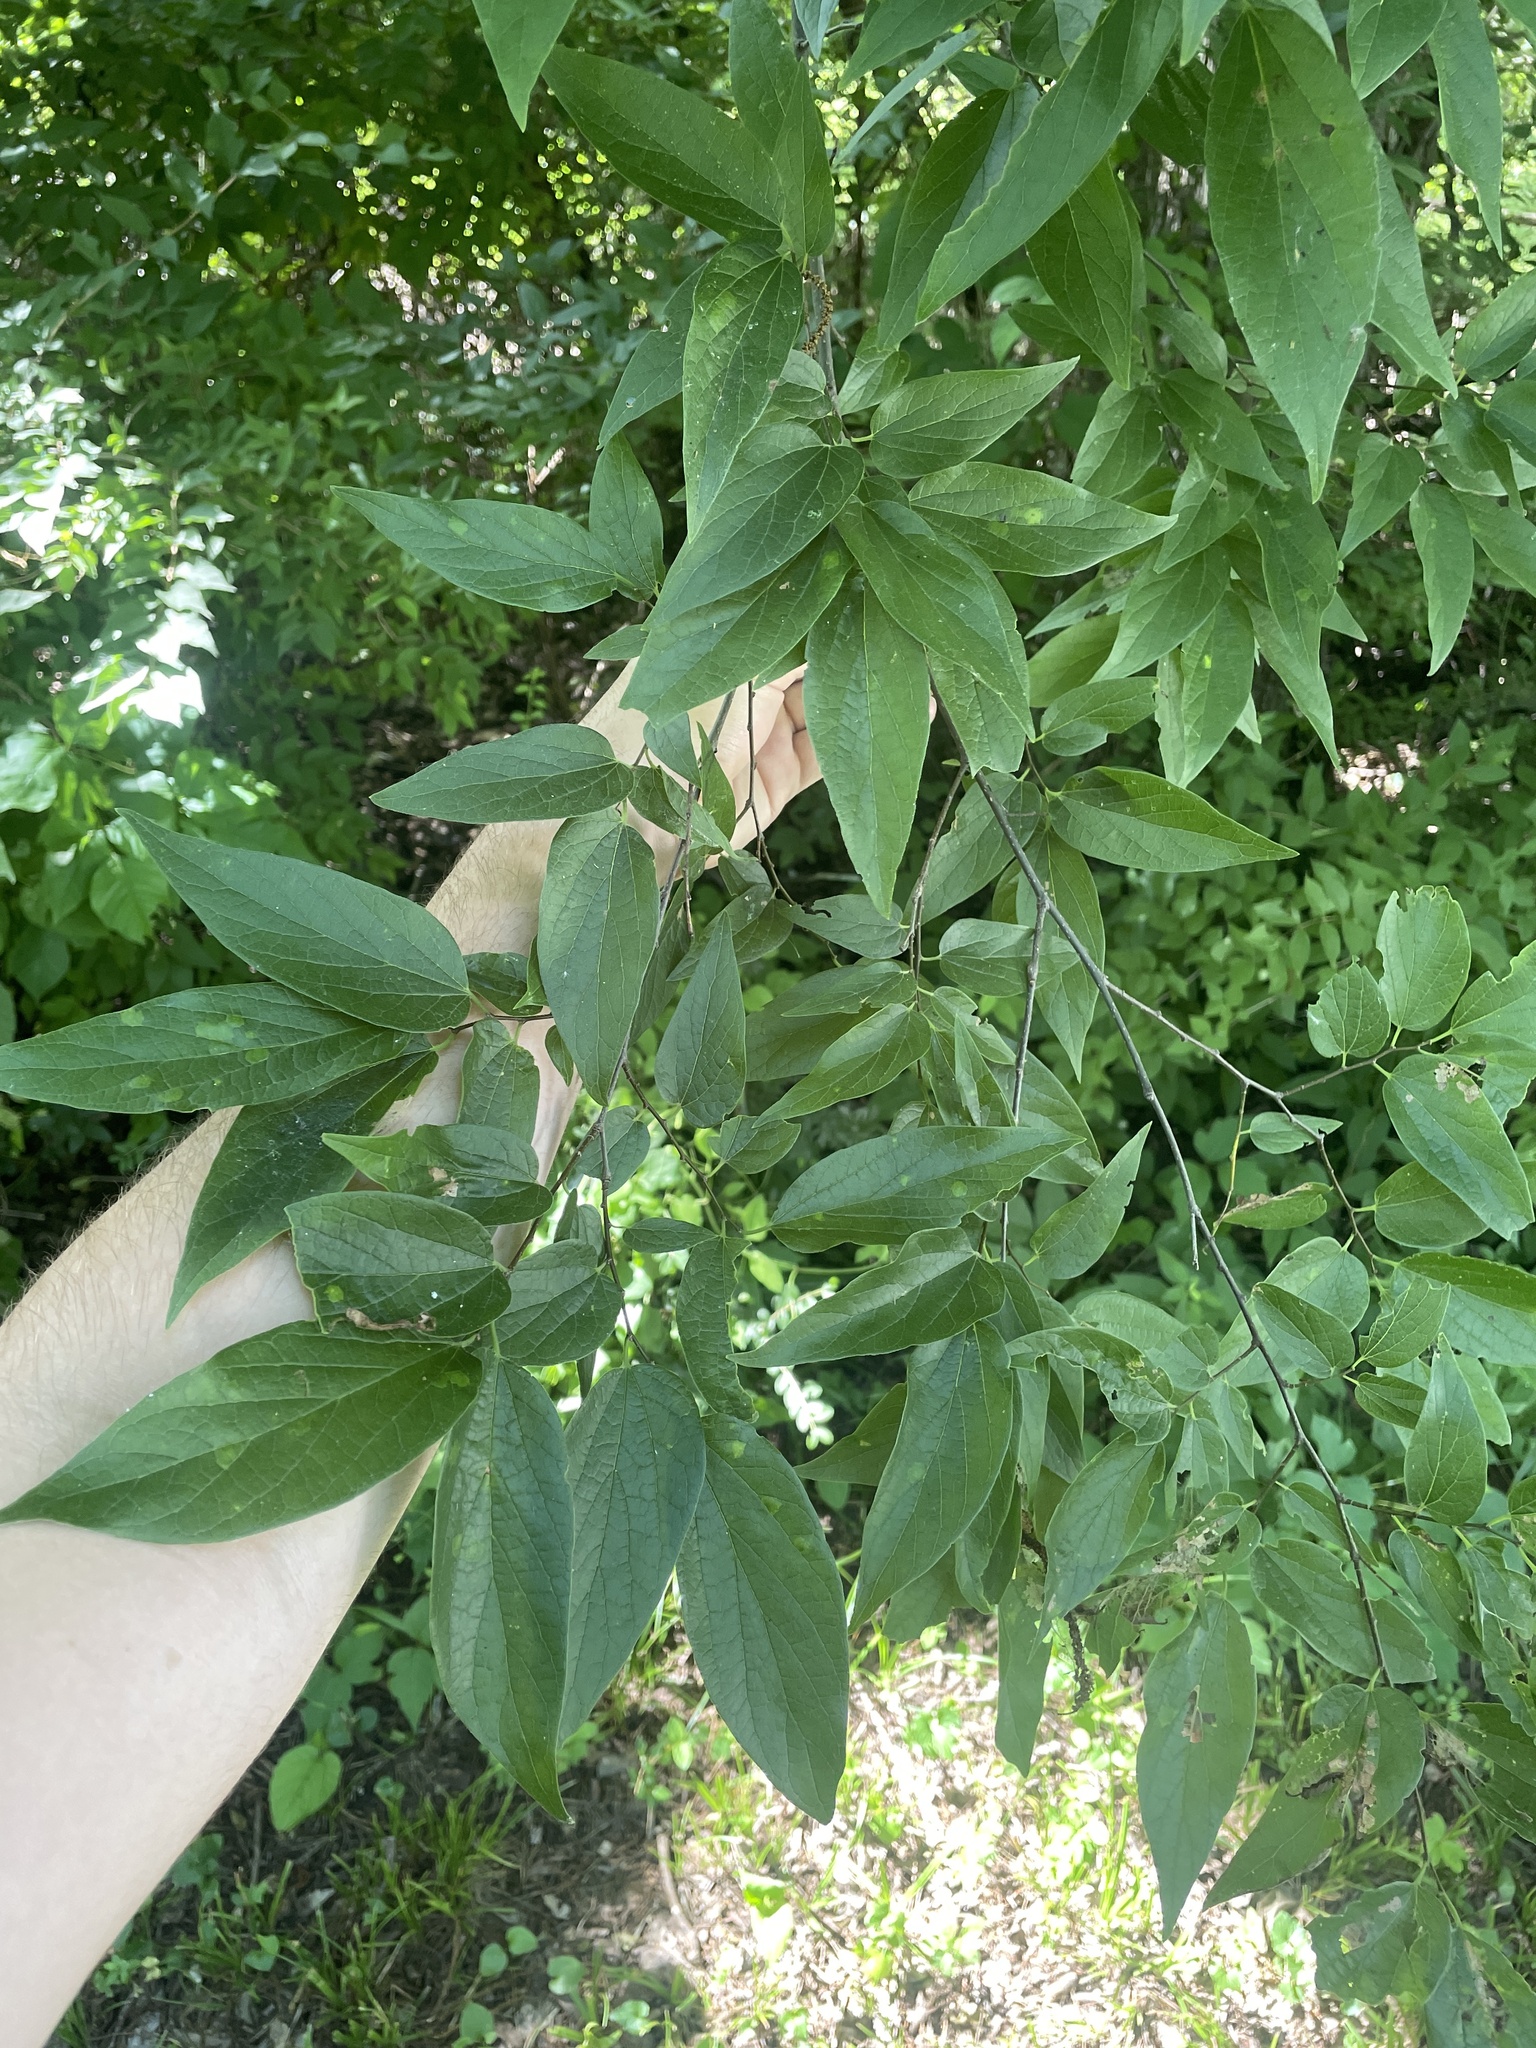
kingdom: Plantae
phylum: Tracheophyta
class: Magnoliopsida
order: Rosales
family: Cannabaceae
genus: Celtis
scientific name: Celtis laevigata
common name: Sugarberry
